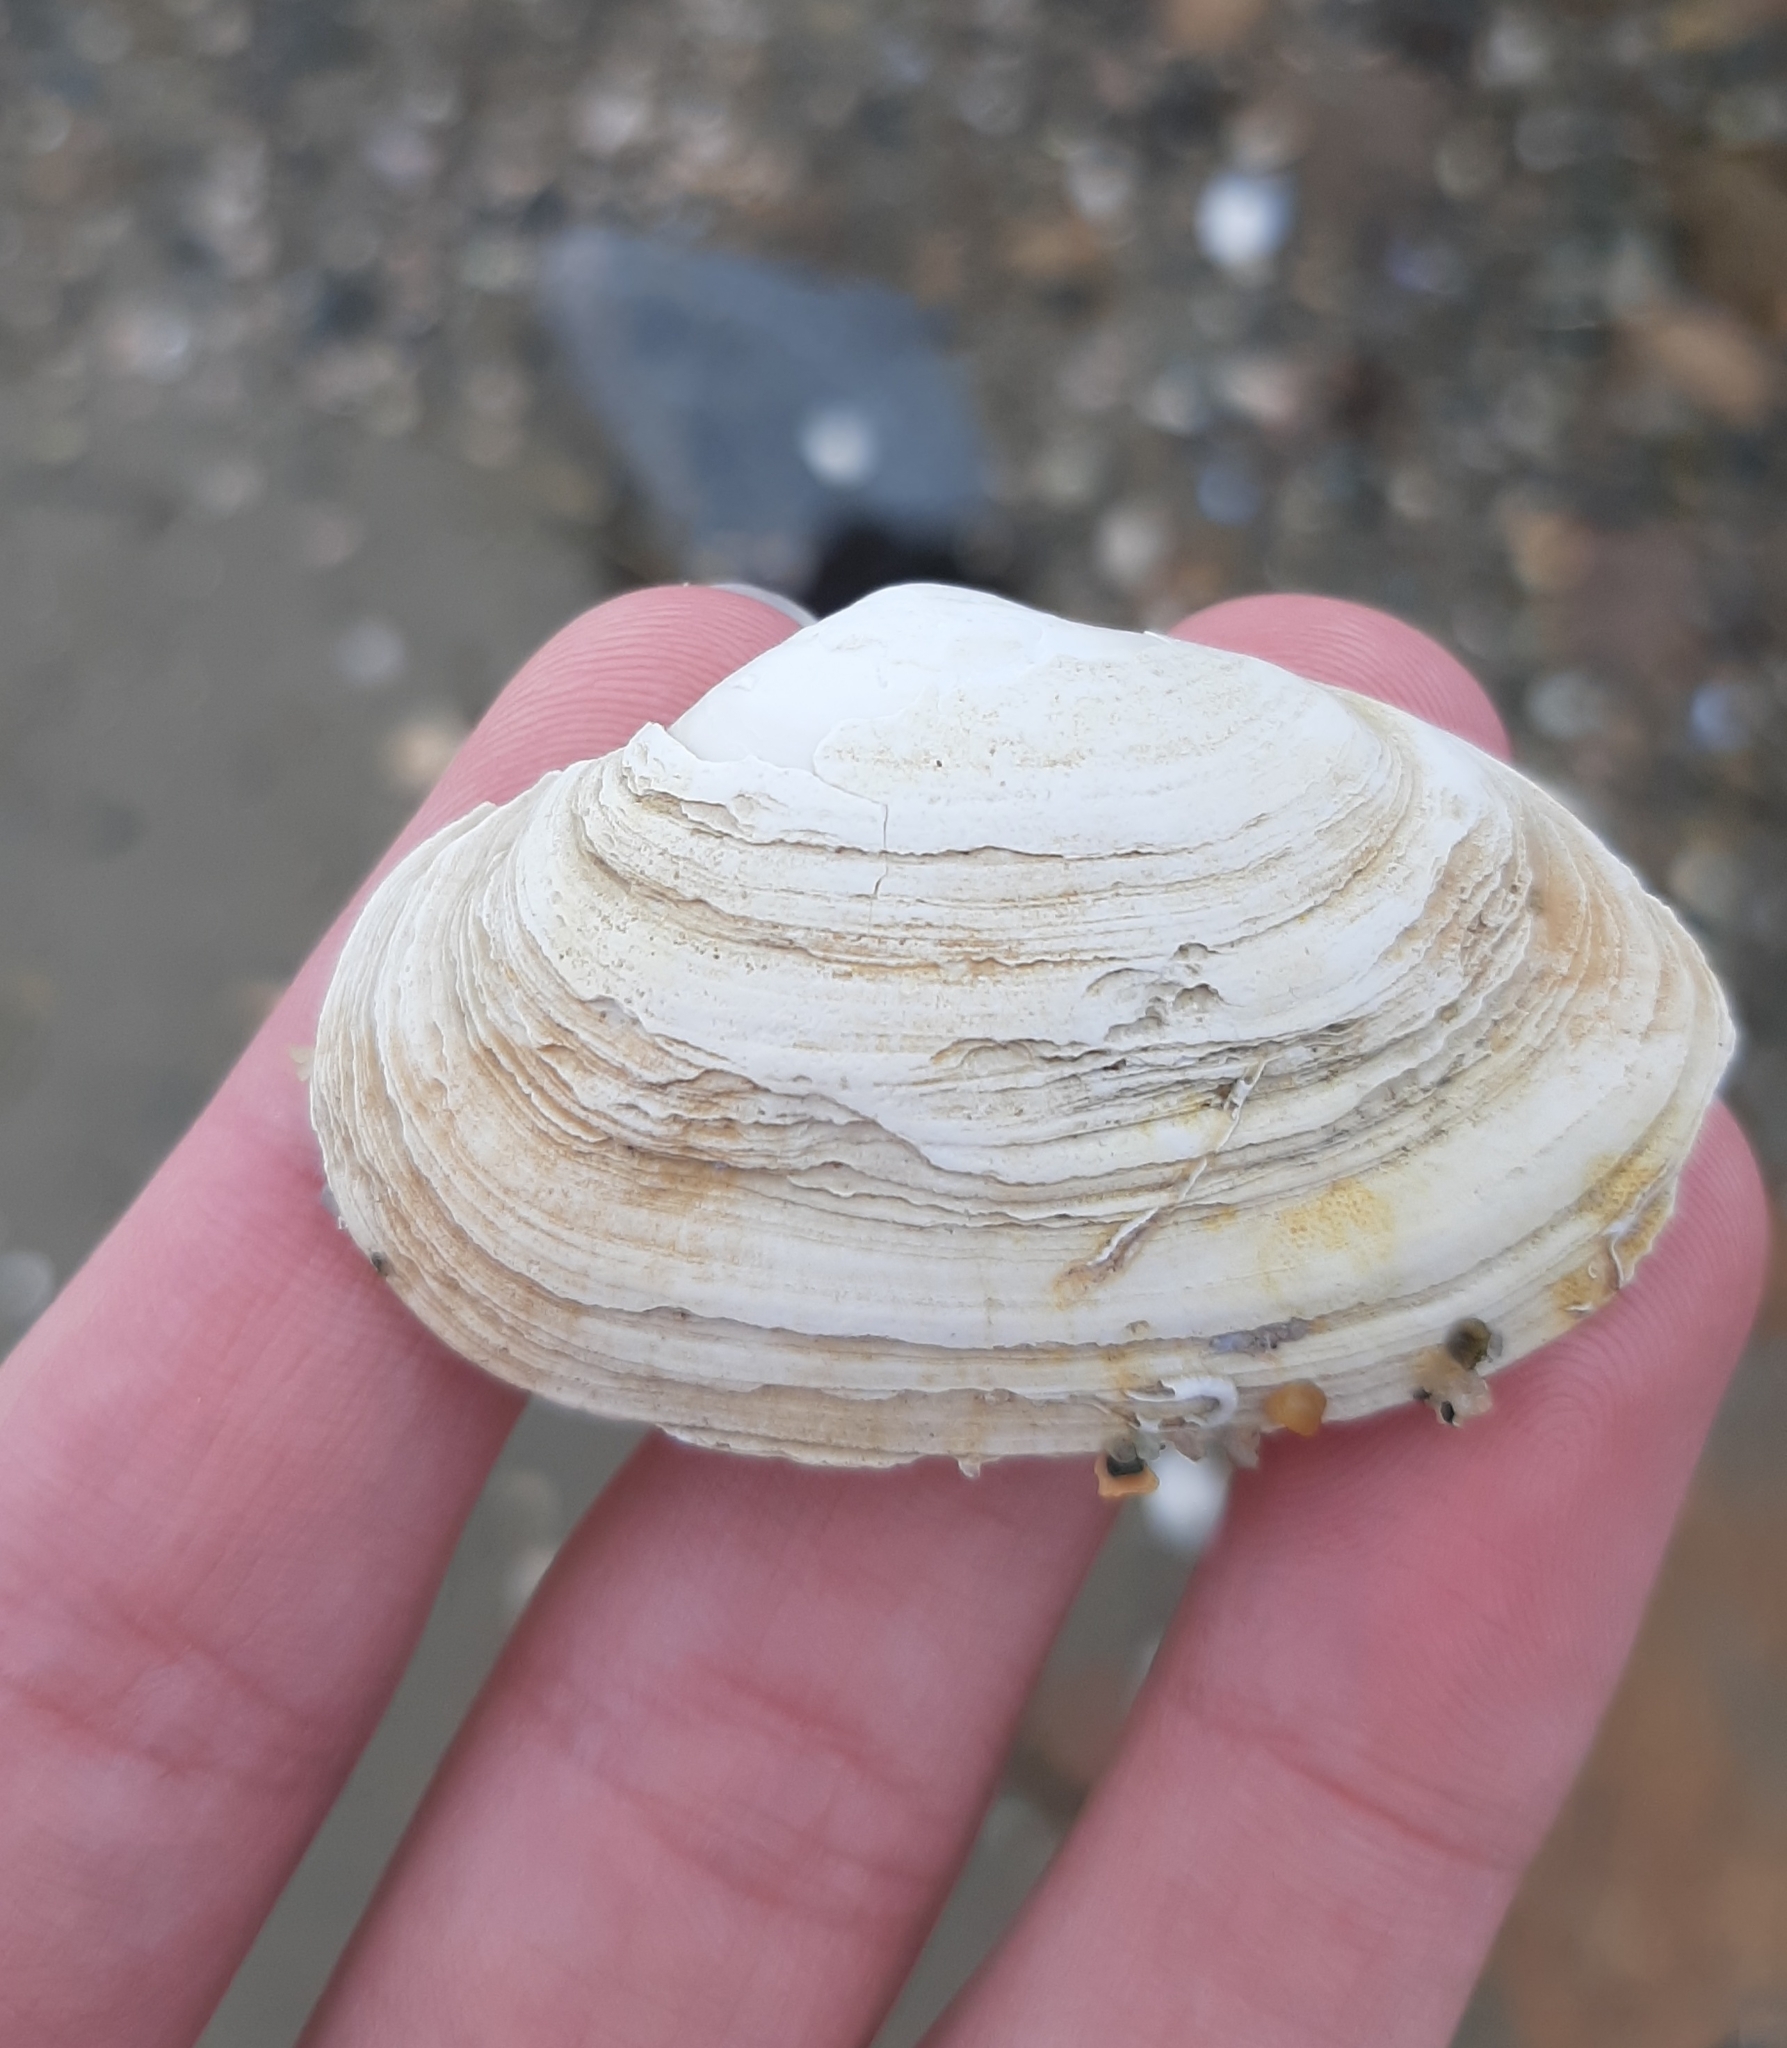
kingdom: Animalia
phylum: Mollusca
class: Bivalvia
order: Myida
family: Myidae
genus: Mya
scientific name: Mya arenaria
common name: Soft-shelled clam
